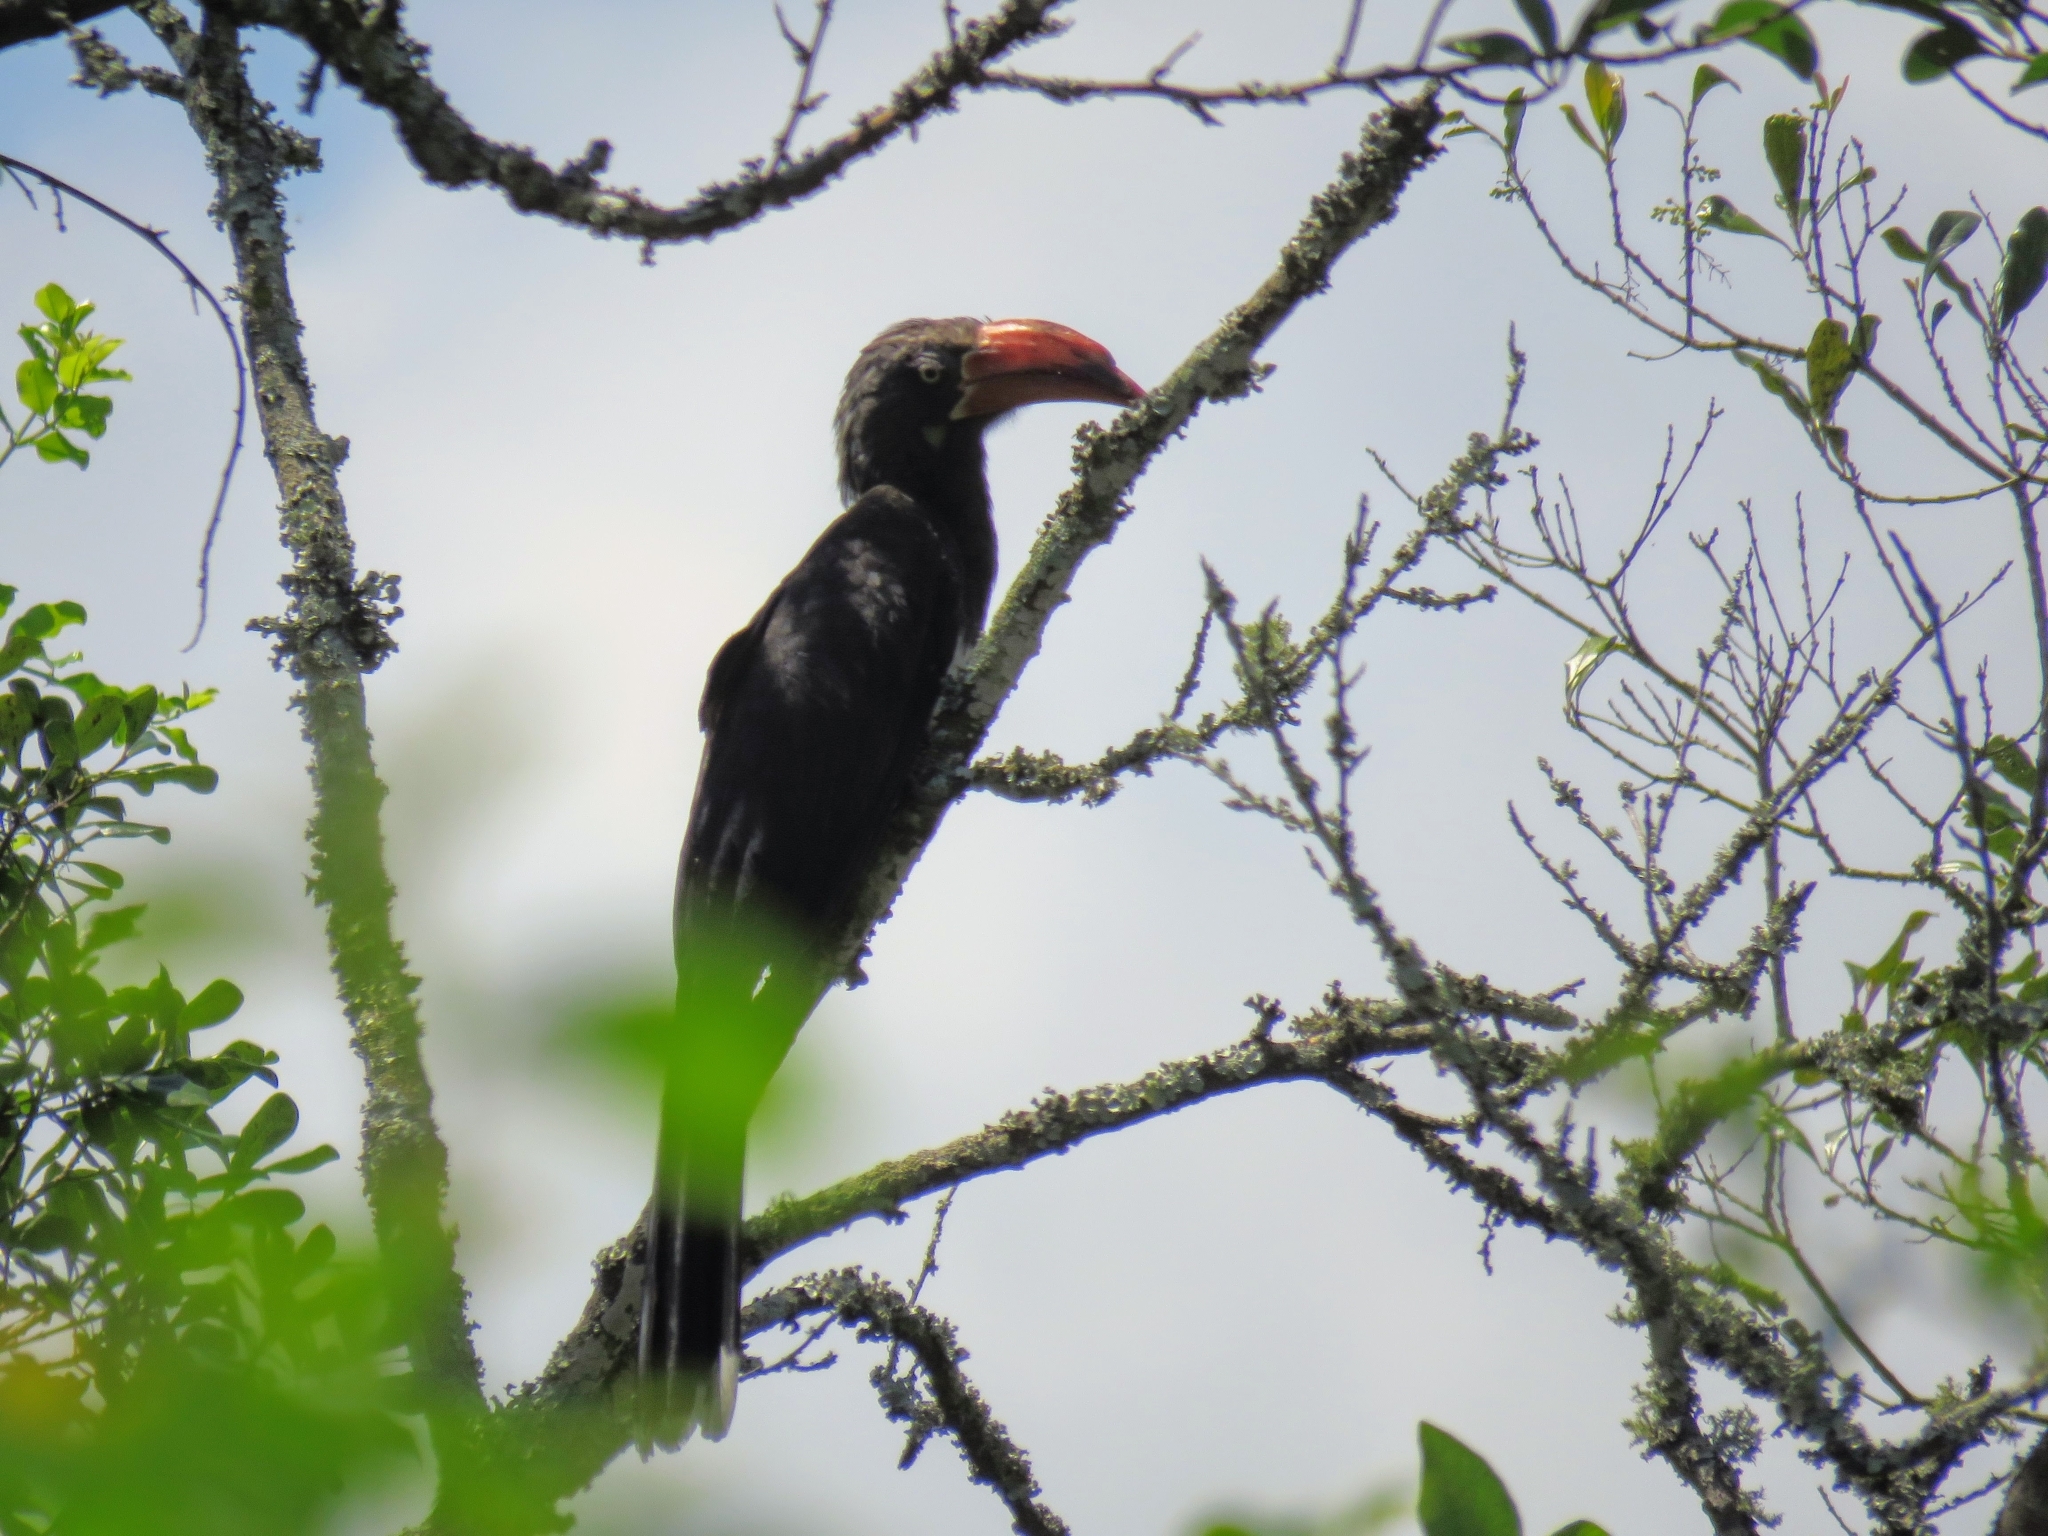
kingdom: Animalia
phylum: Chordata
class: Aves
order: Bucerotiformes
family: Bucerotidae
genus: Lophoceros
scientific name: Lophoceros alboterminatus
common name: Crowned hornbill
